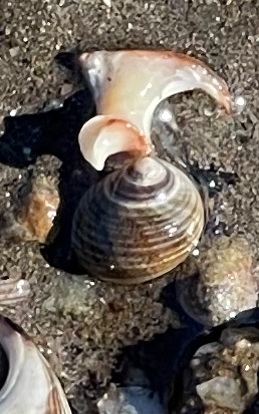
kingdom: Animalia
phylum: Mollusca
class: Gastropoda
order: Littorinimorpha
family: Littorinidae
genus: Littorina
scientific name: Littorina littorea
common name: Common periwinkle
